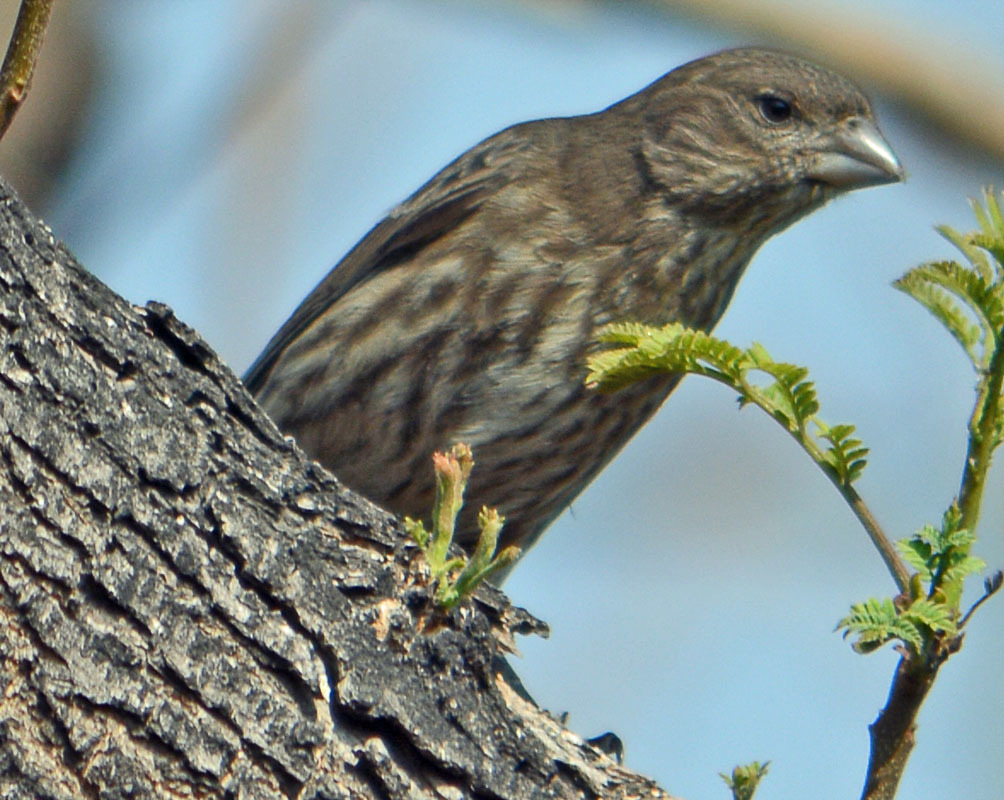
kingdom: Animalia
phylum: Chordata
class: Aves
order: Passeriformes
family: Fringillidae
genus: Haemorhous
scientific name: Haemorhous mexicanus
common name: House finch
